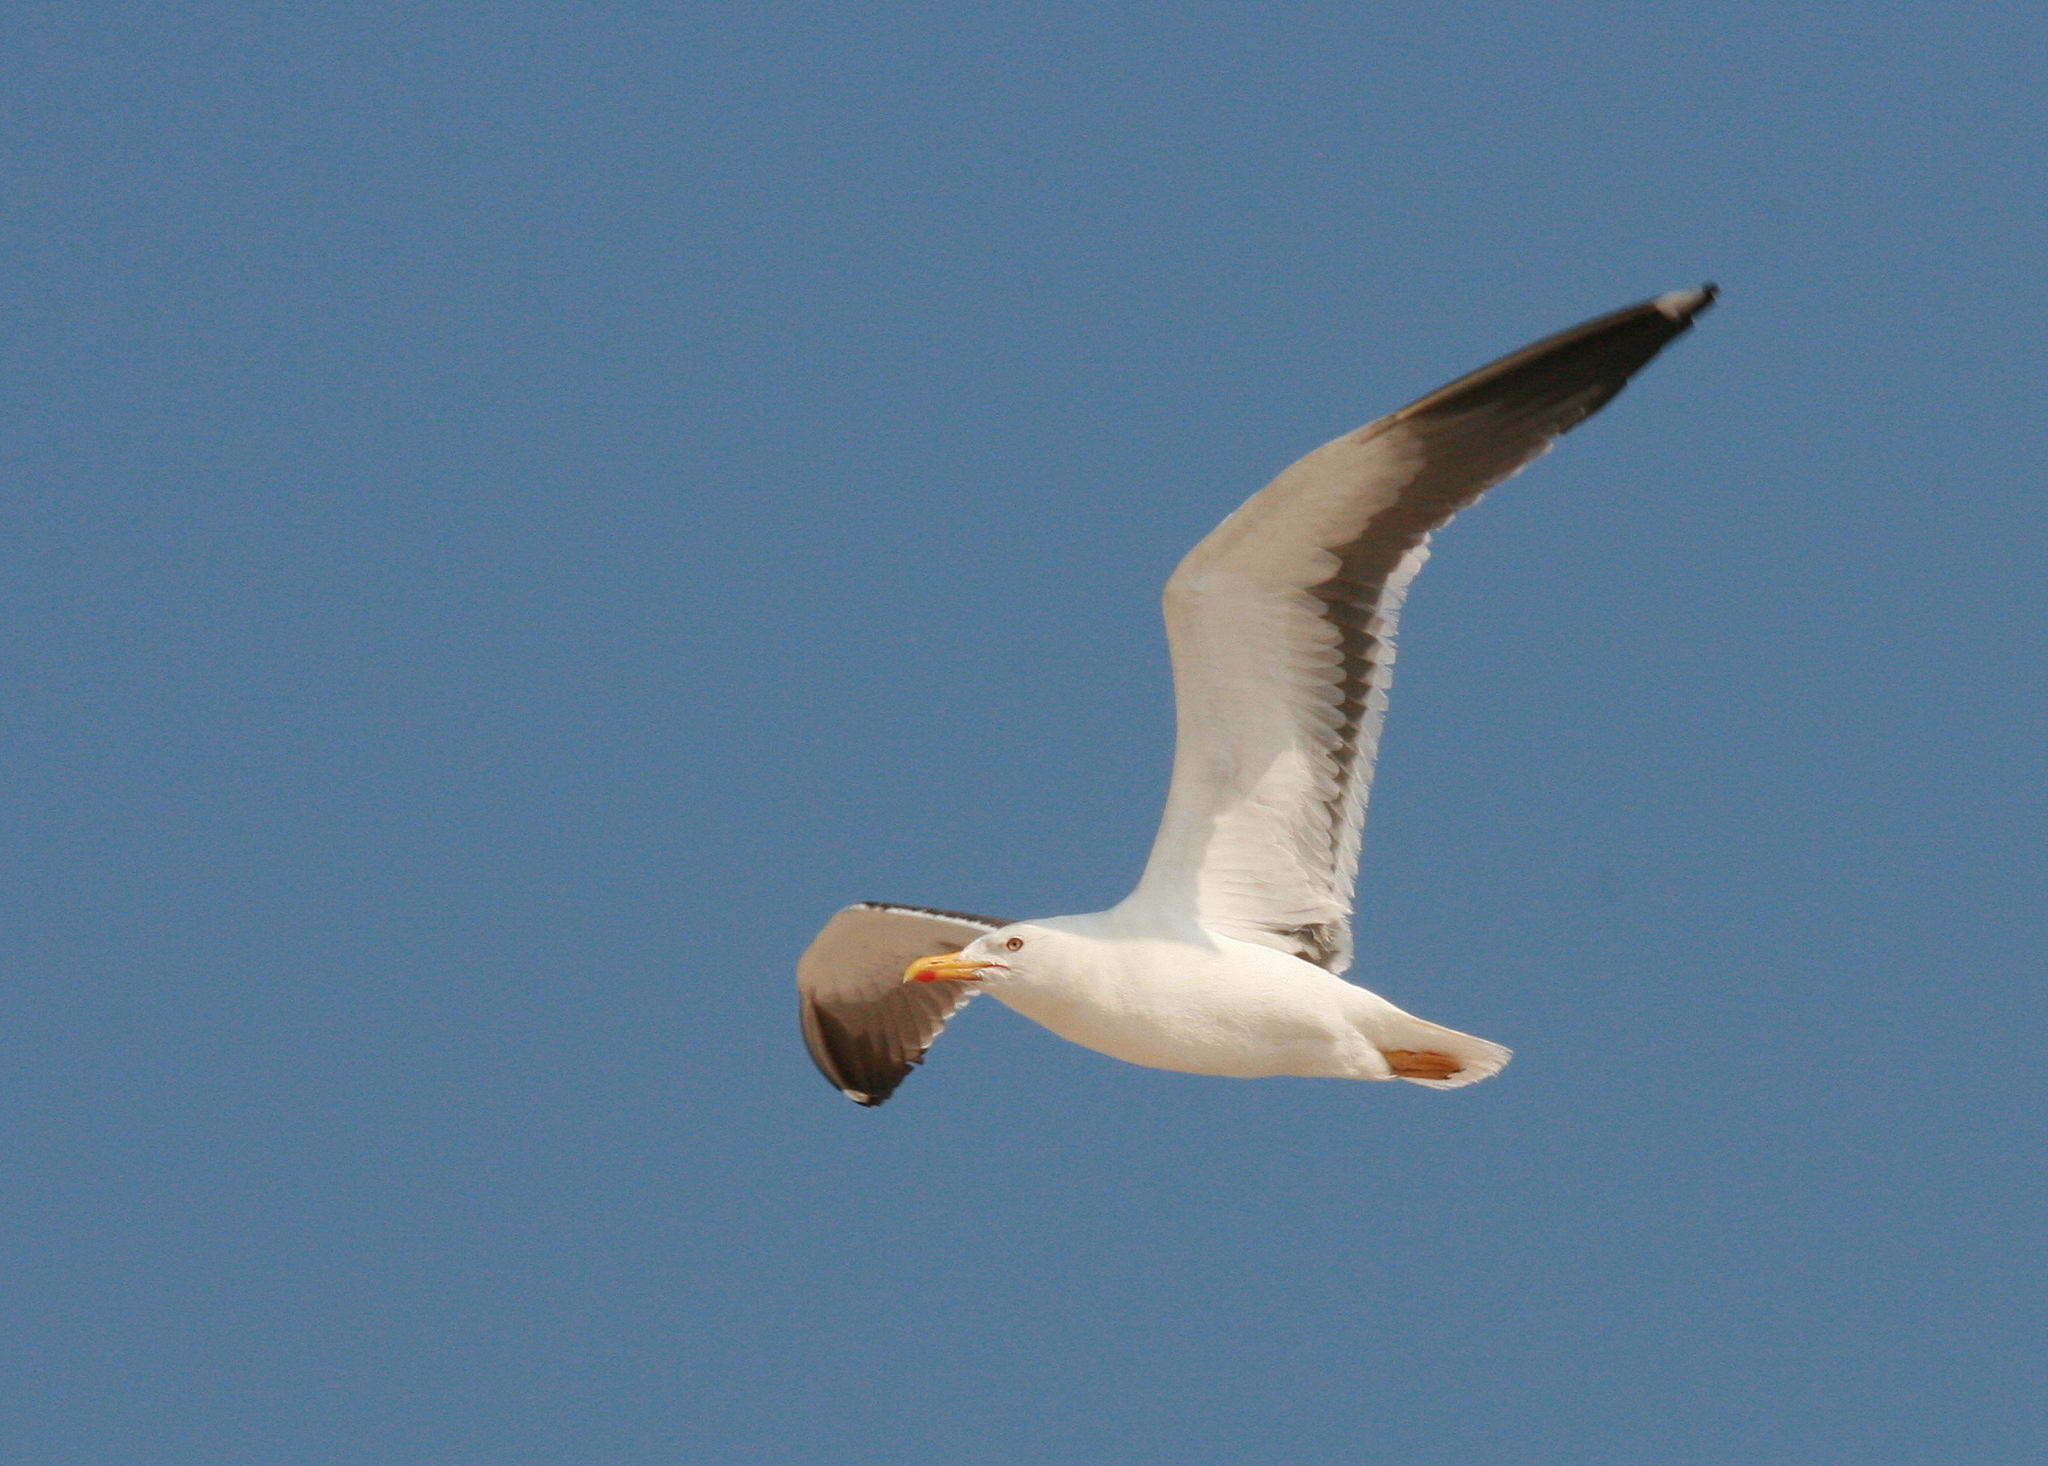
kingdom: Animalia
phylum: Chordata
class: Aves
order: Charadriiformes
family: Laridae
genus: Larus
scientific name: Larus fuscus
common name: Lesser black-backed gull
